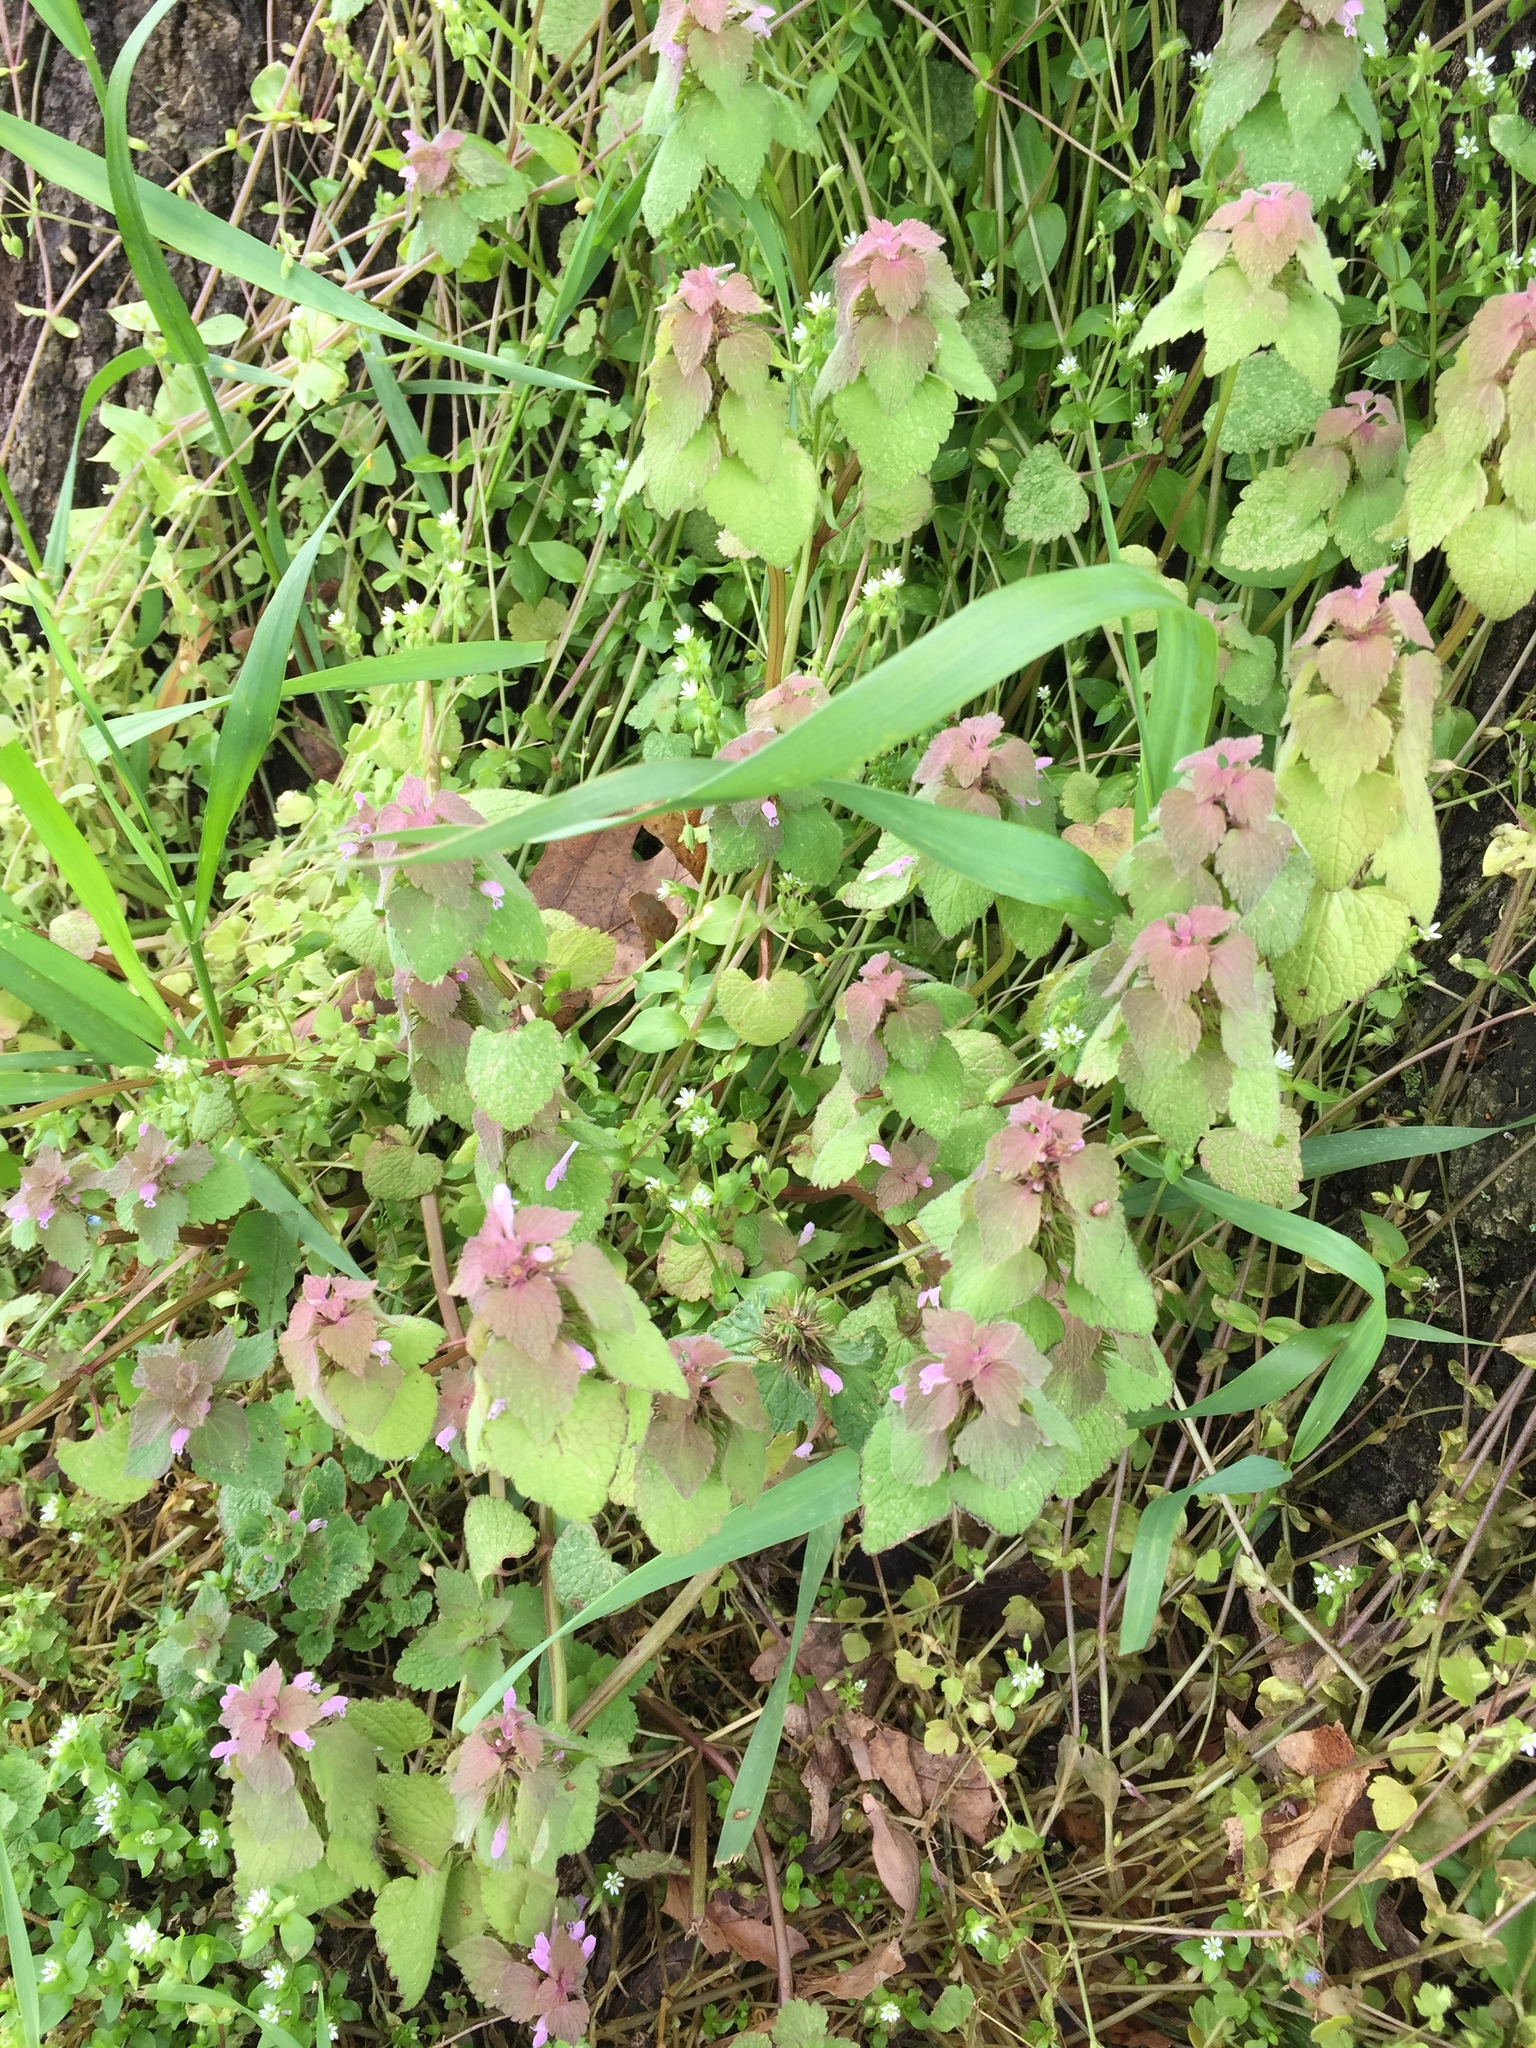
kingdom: Plantae
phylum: Tracheophyta
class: Magnoliopsida
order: Lamiales
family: Lamiaceae
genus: Lamium
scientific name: Lamium purpureum
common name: Red dead-nettle
